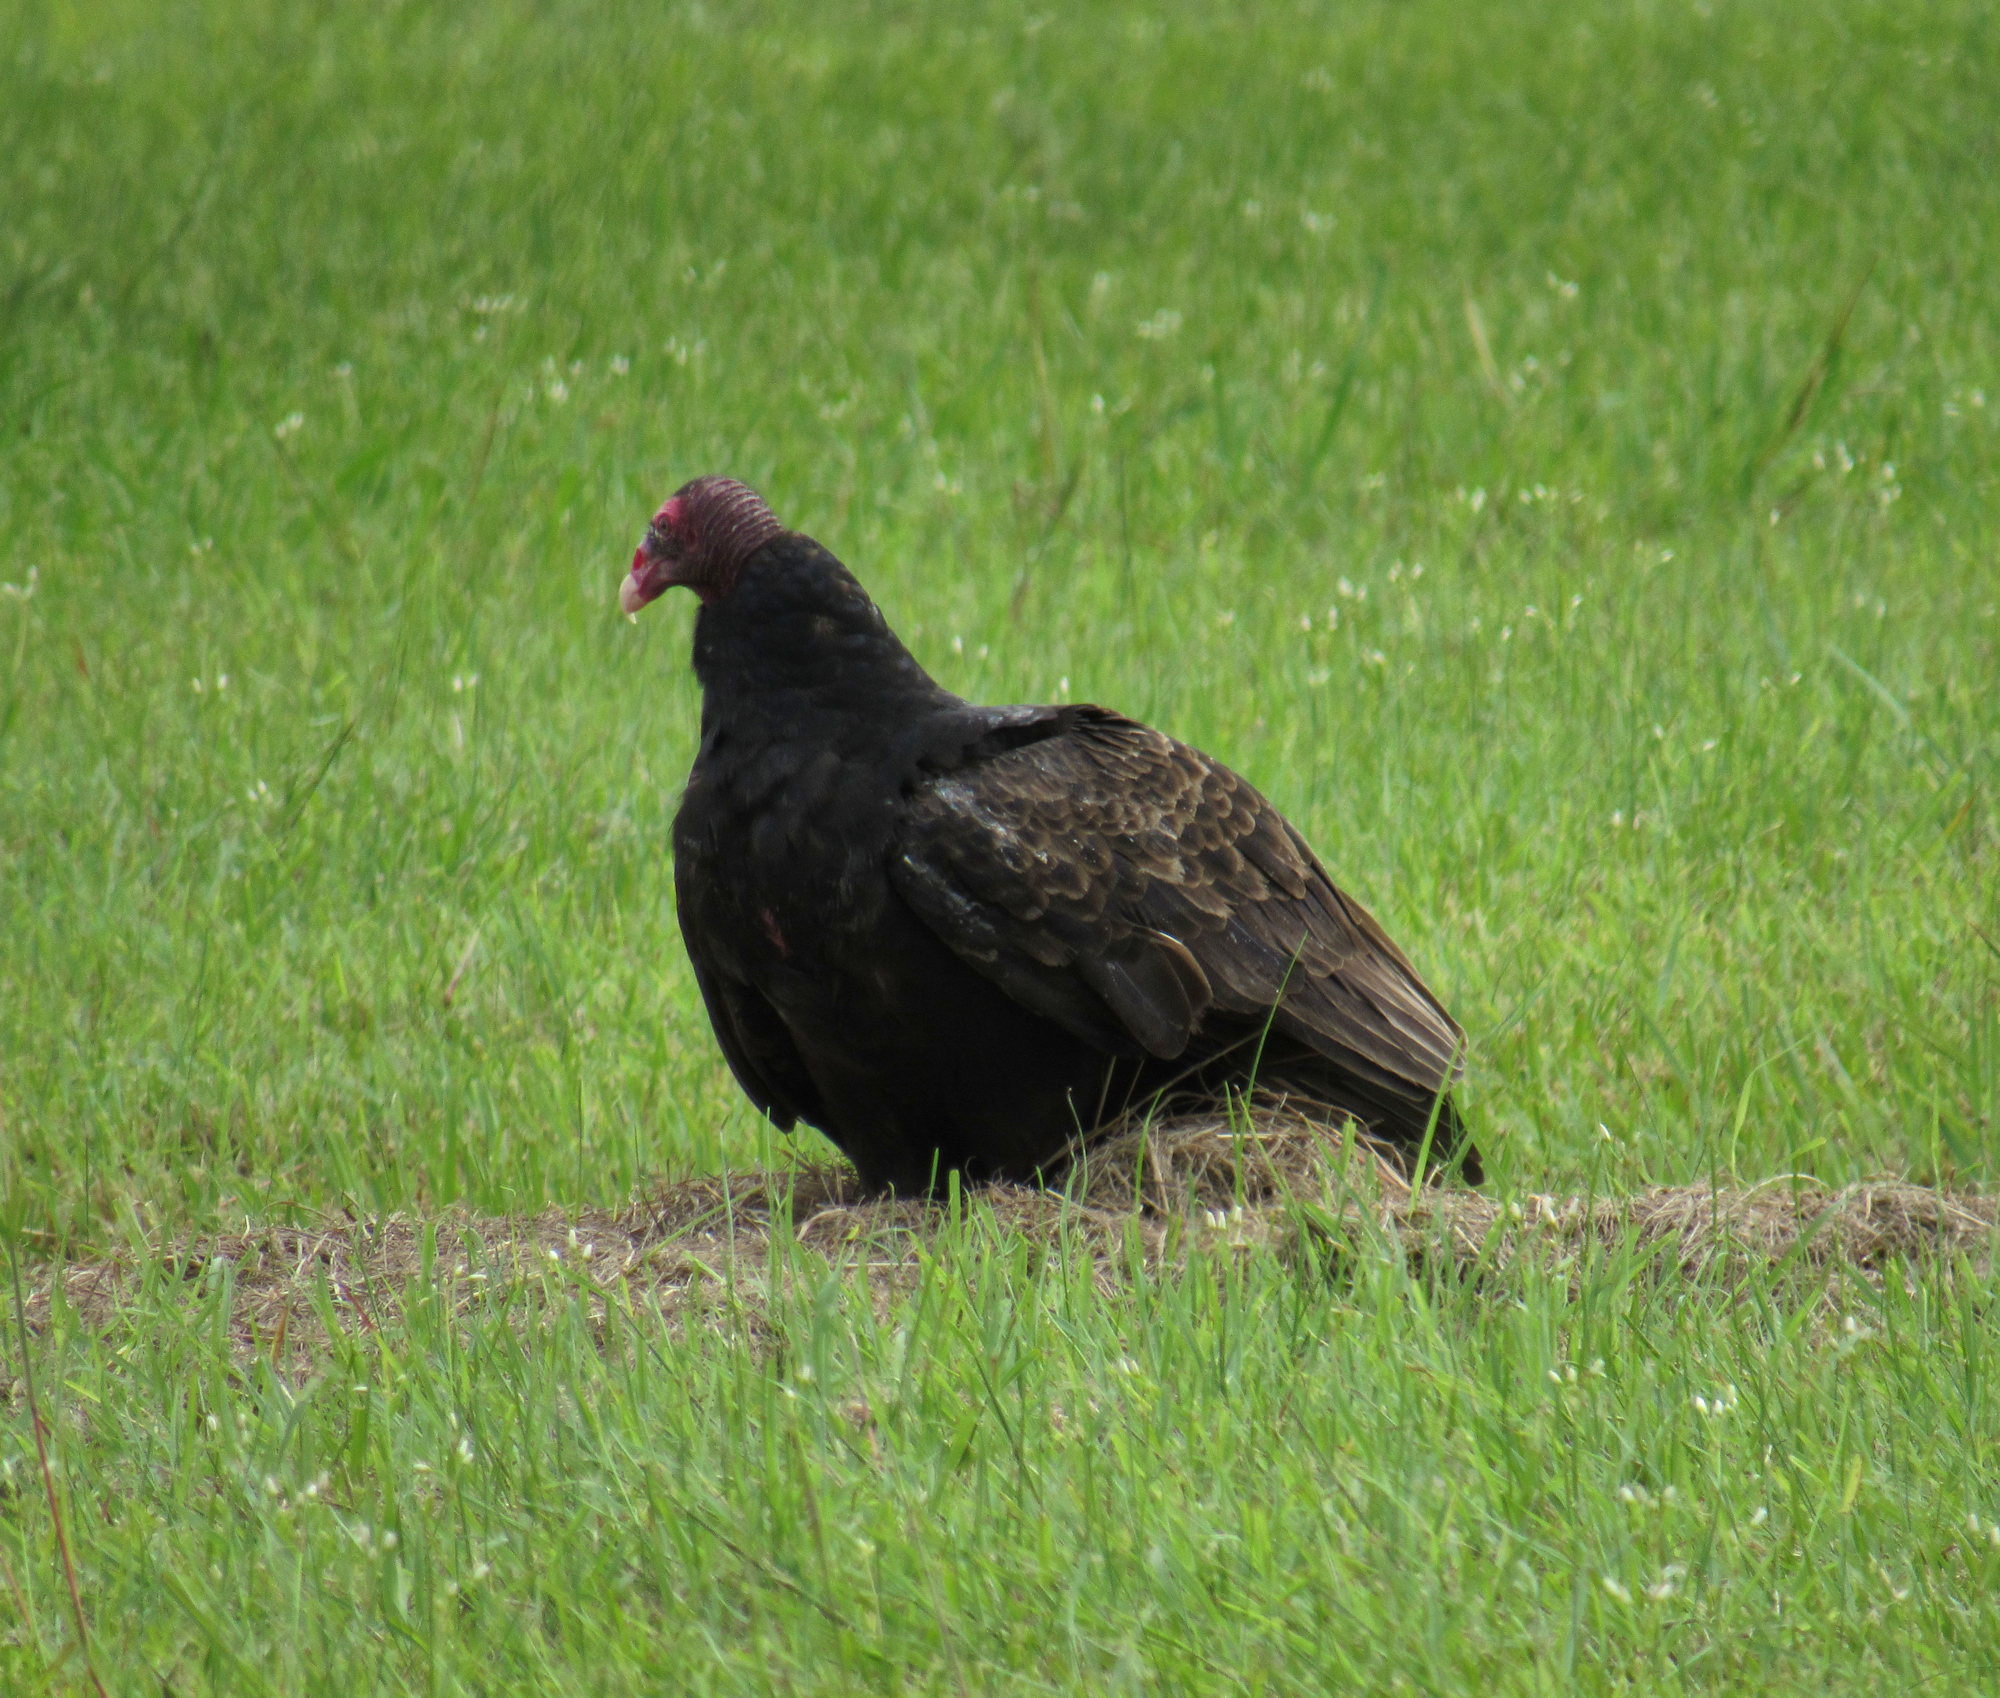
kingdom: Animalia
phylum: Chordata
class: Aves
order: Accipitriformes
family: Cathartidae
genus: Cathartes
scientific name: Cathartes aura
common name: Turkey vulture
